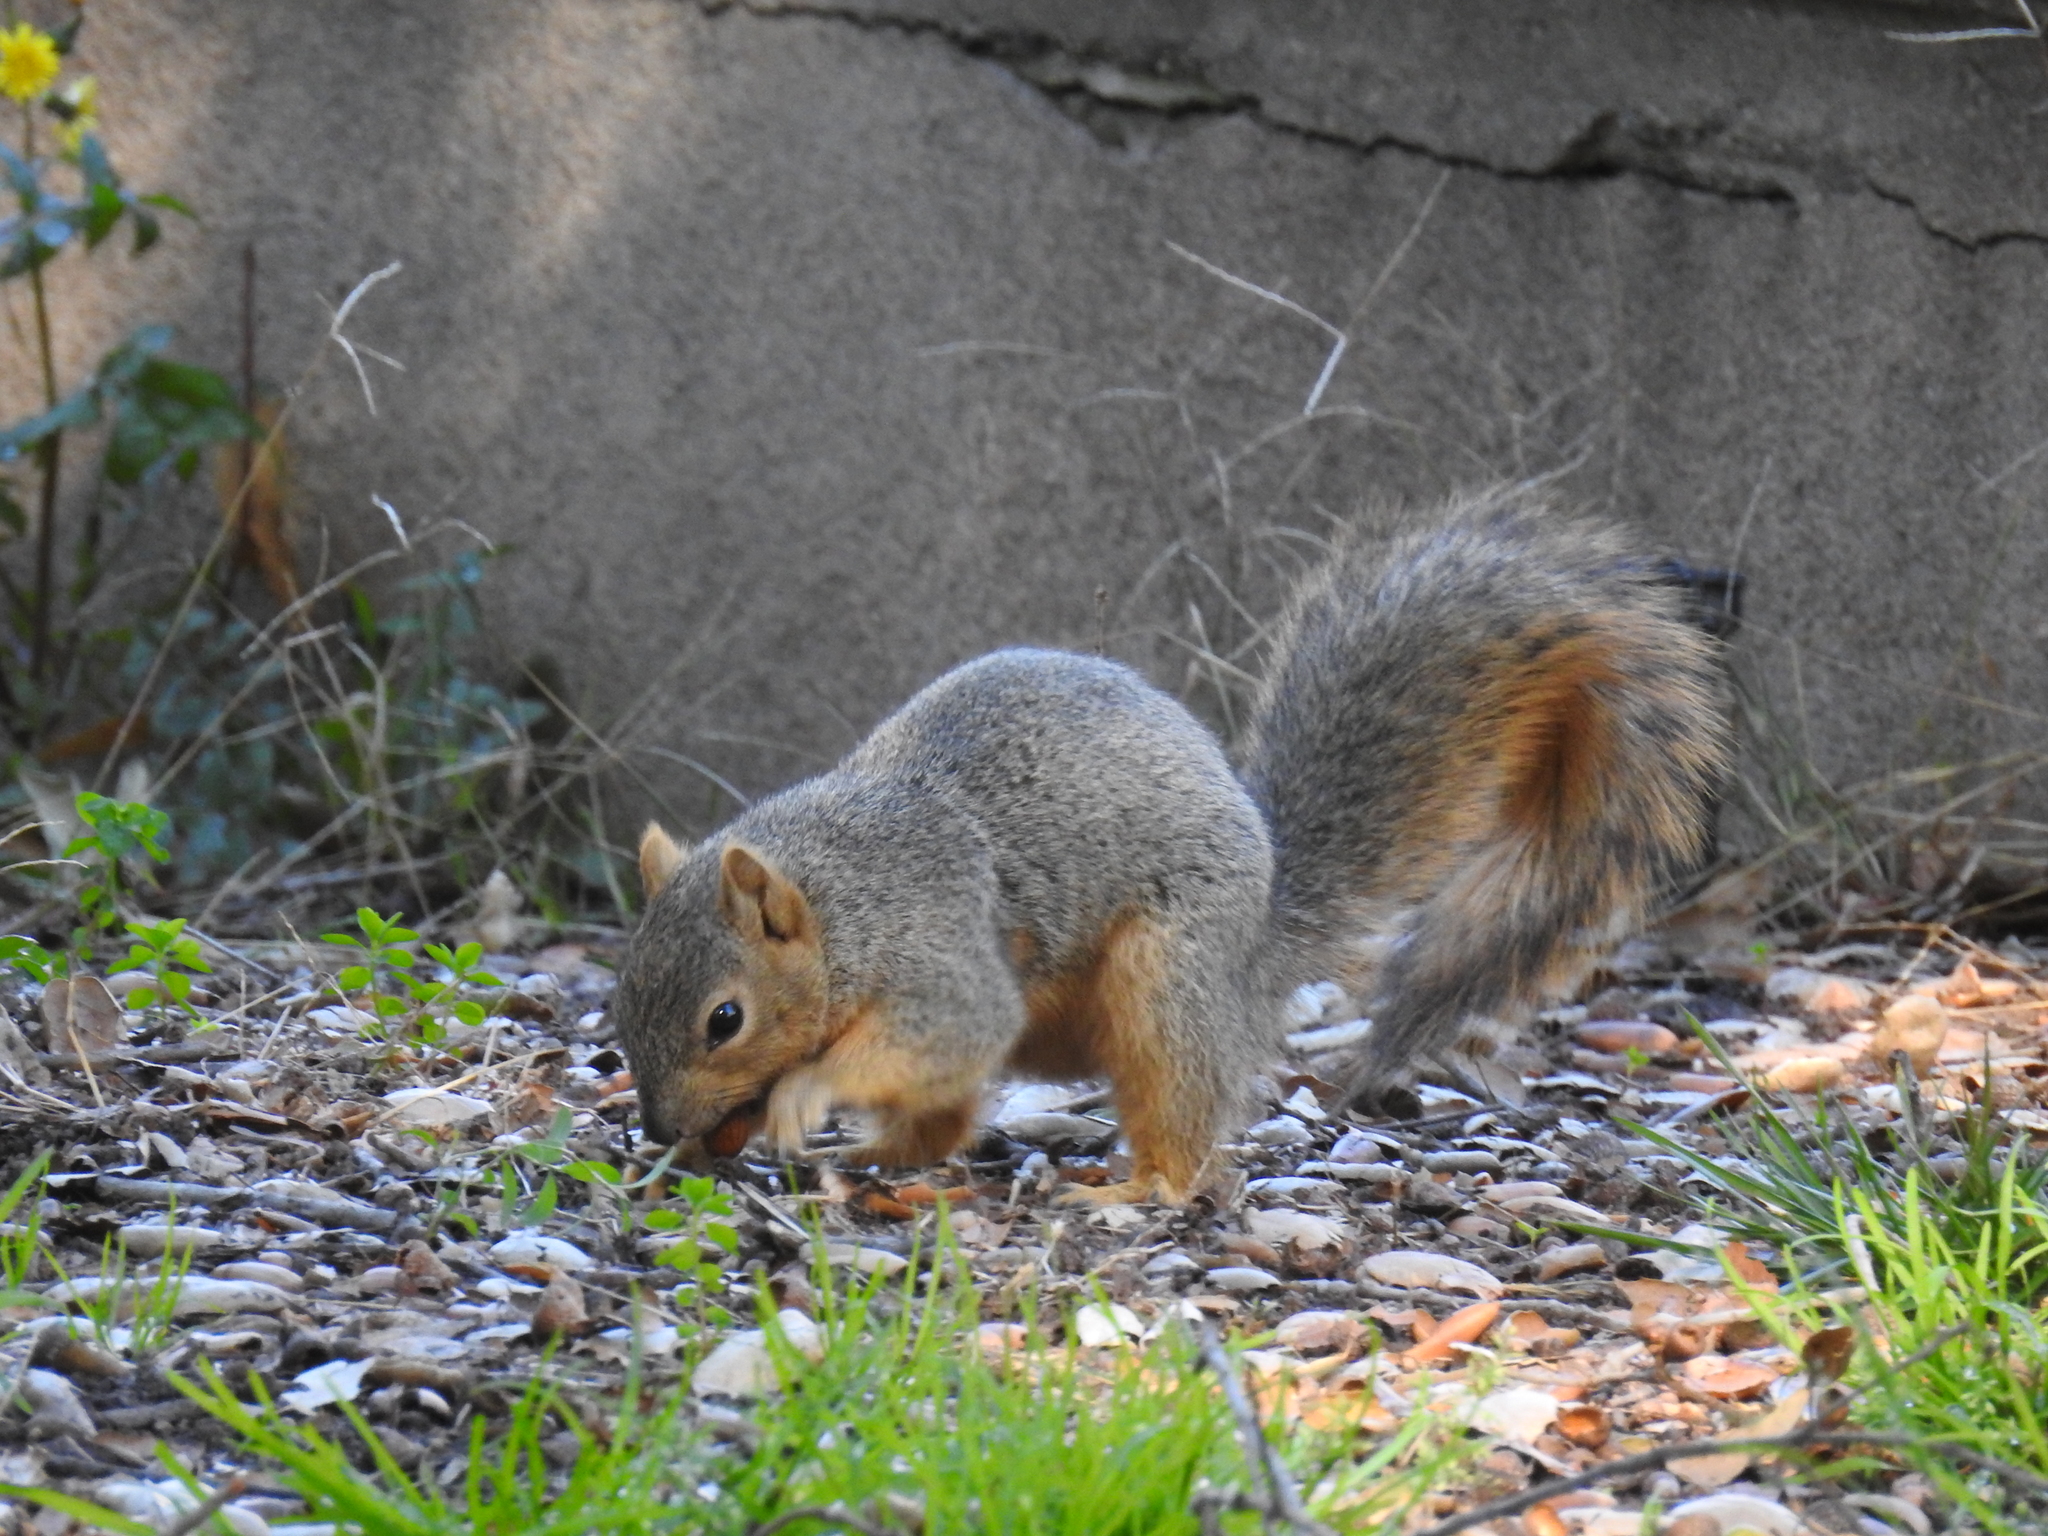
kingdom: Animalia
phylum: Chordata
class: Mammalia
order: Rodentia
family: Sciuridae
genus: Sciurus
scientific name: Sciurus niger
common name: Fox squirrel
